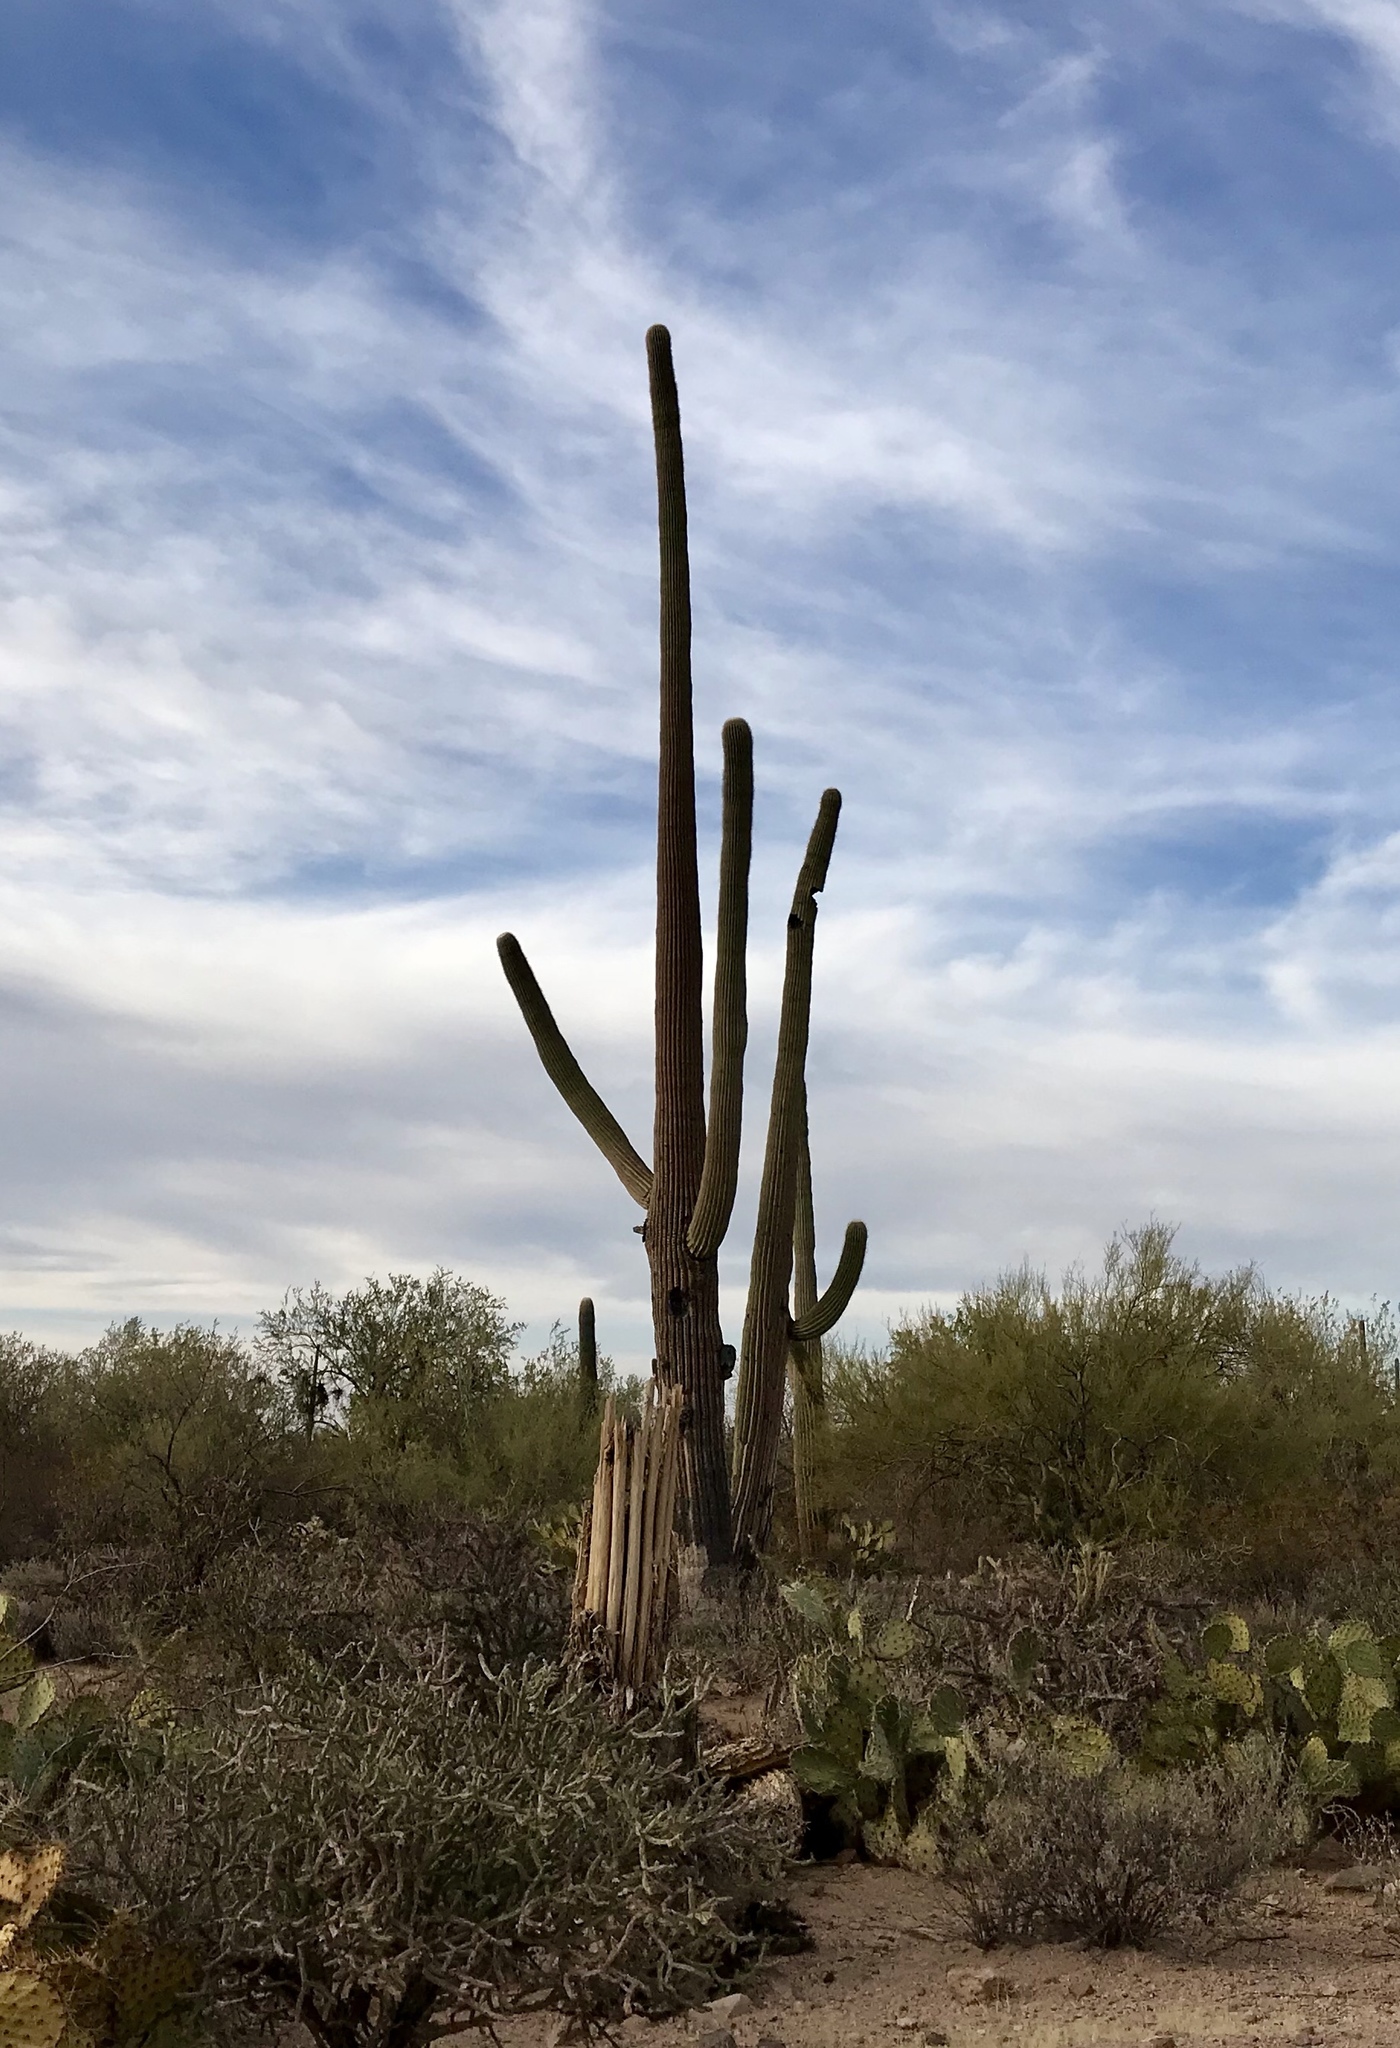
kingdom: Plantae
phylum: Tracheophyta
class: Magnoliopsida
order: Caryophyllales
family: Cactaceae
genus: Carnegiea
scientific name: Carnegiea gigantea
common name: Saguaro
